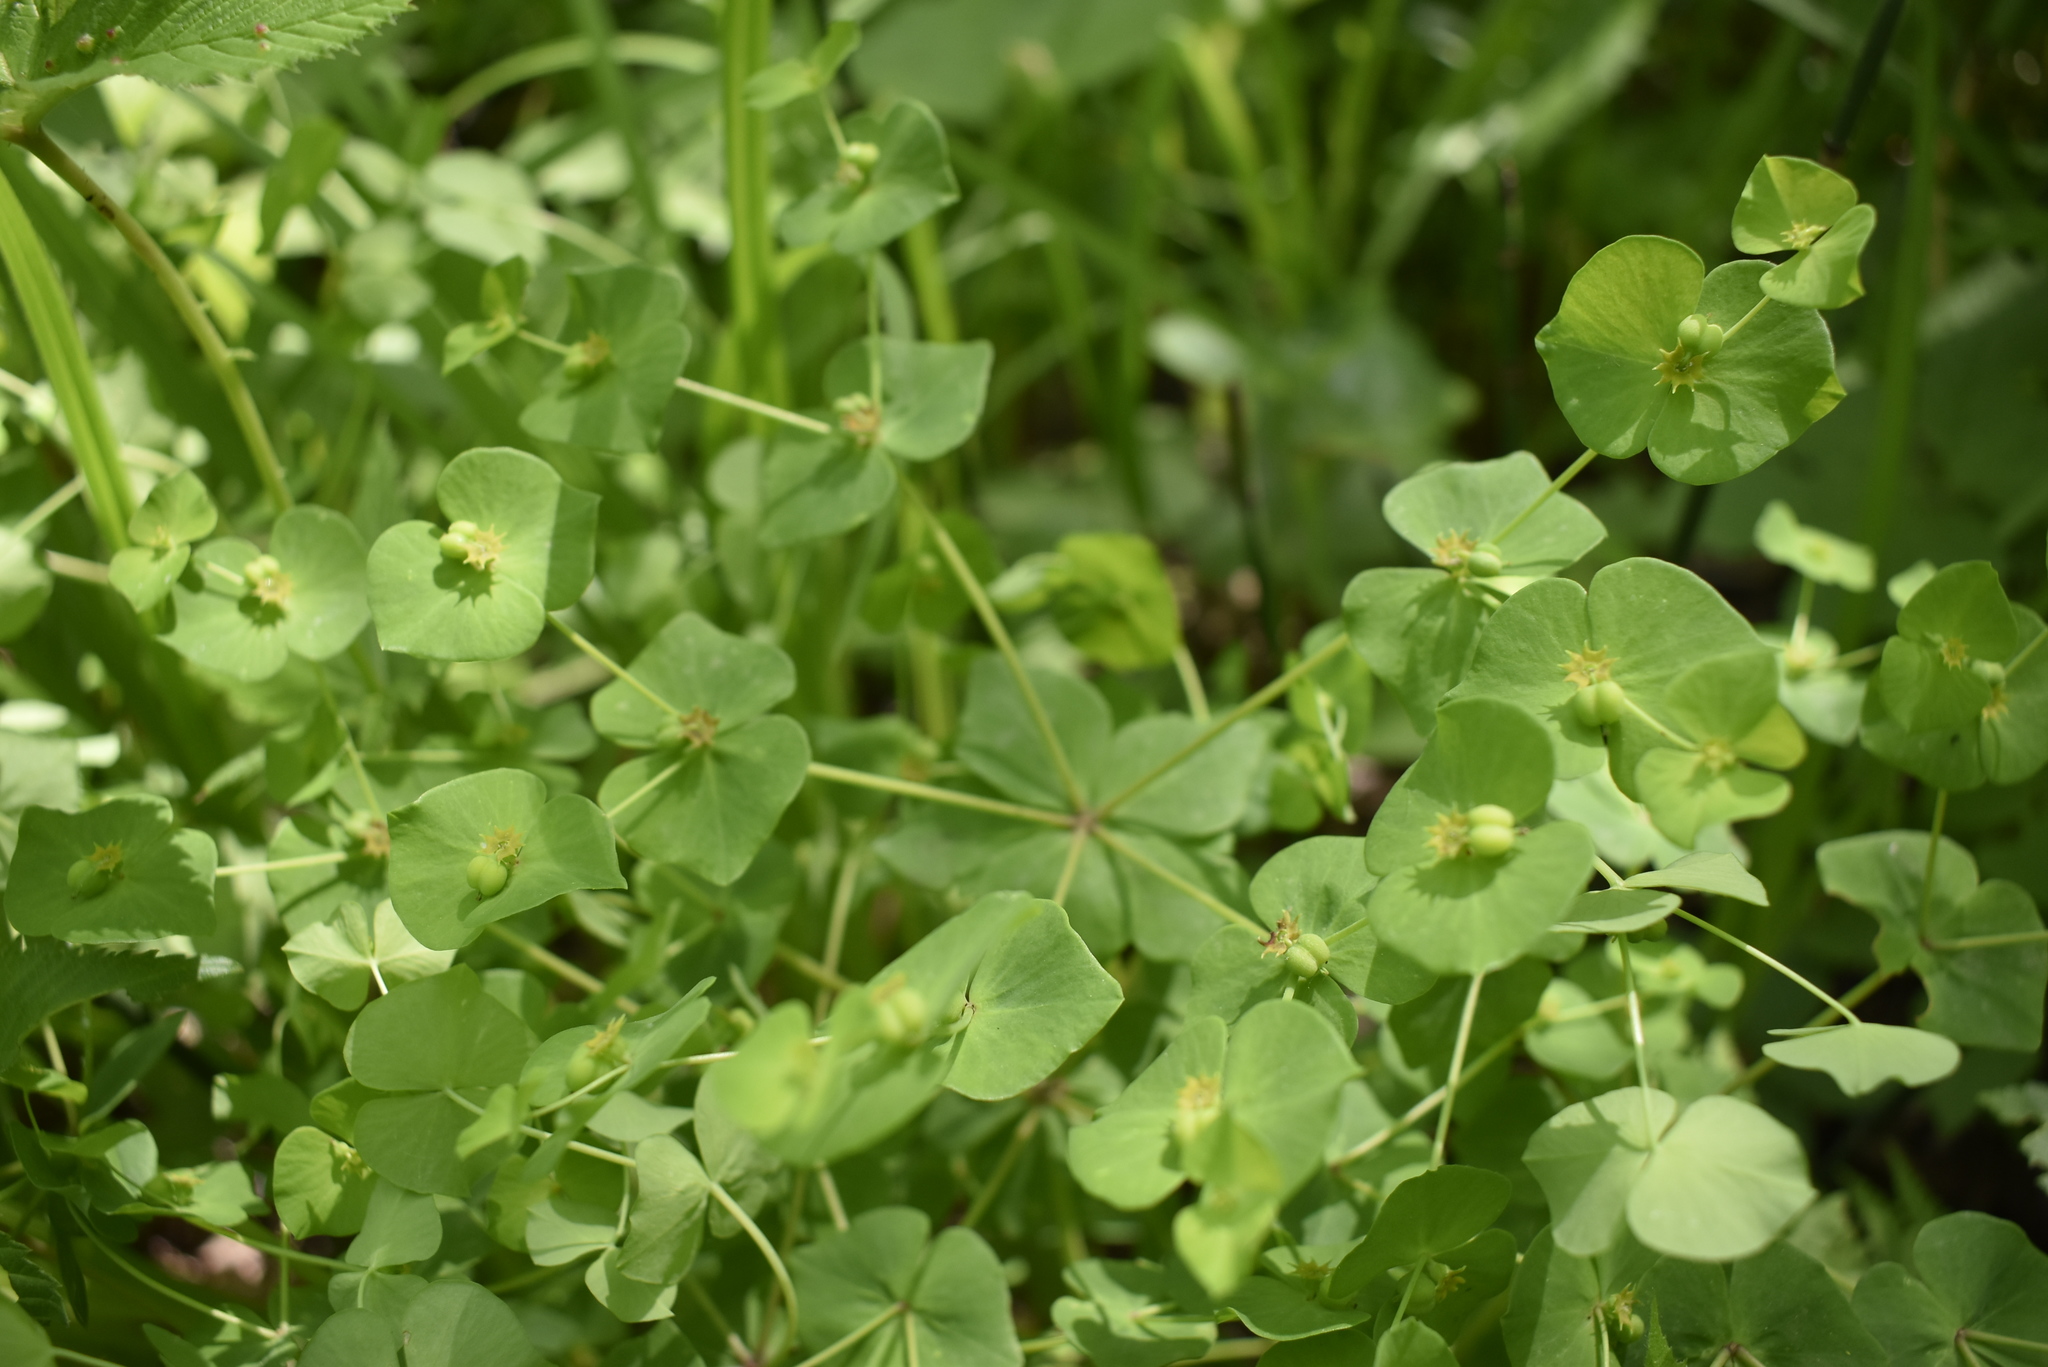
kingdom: Plantae
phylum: Tracheophyta
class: Magnoliopsida
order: Malpighiales
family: Euphorbiaceae
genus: Euphorbia
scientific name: Euphorbia sieboldiana
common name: Siebold's spurge
